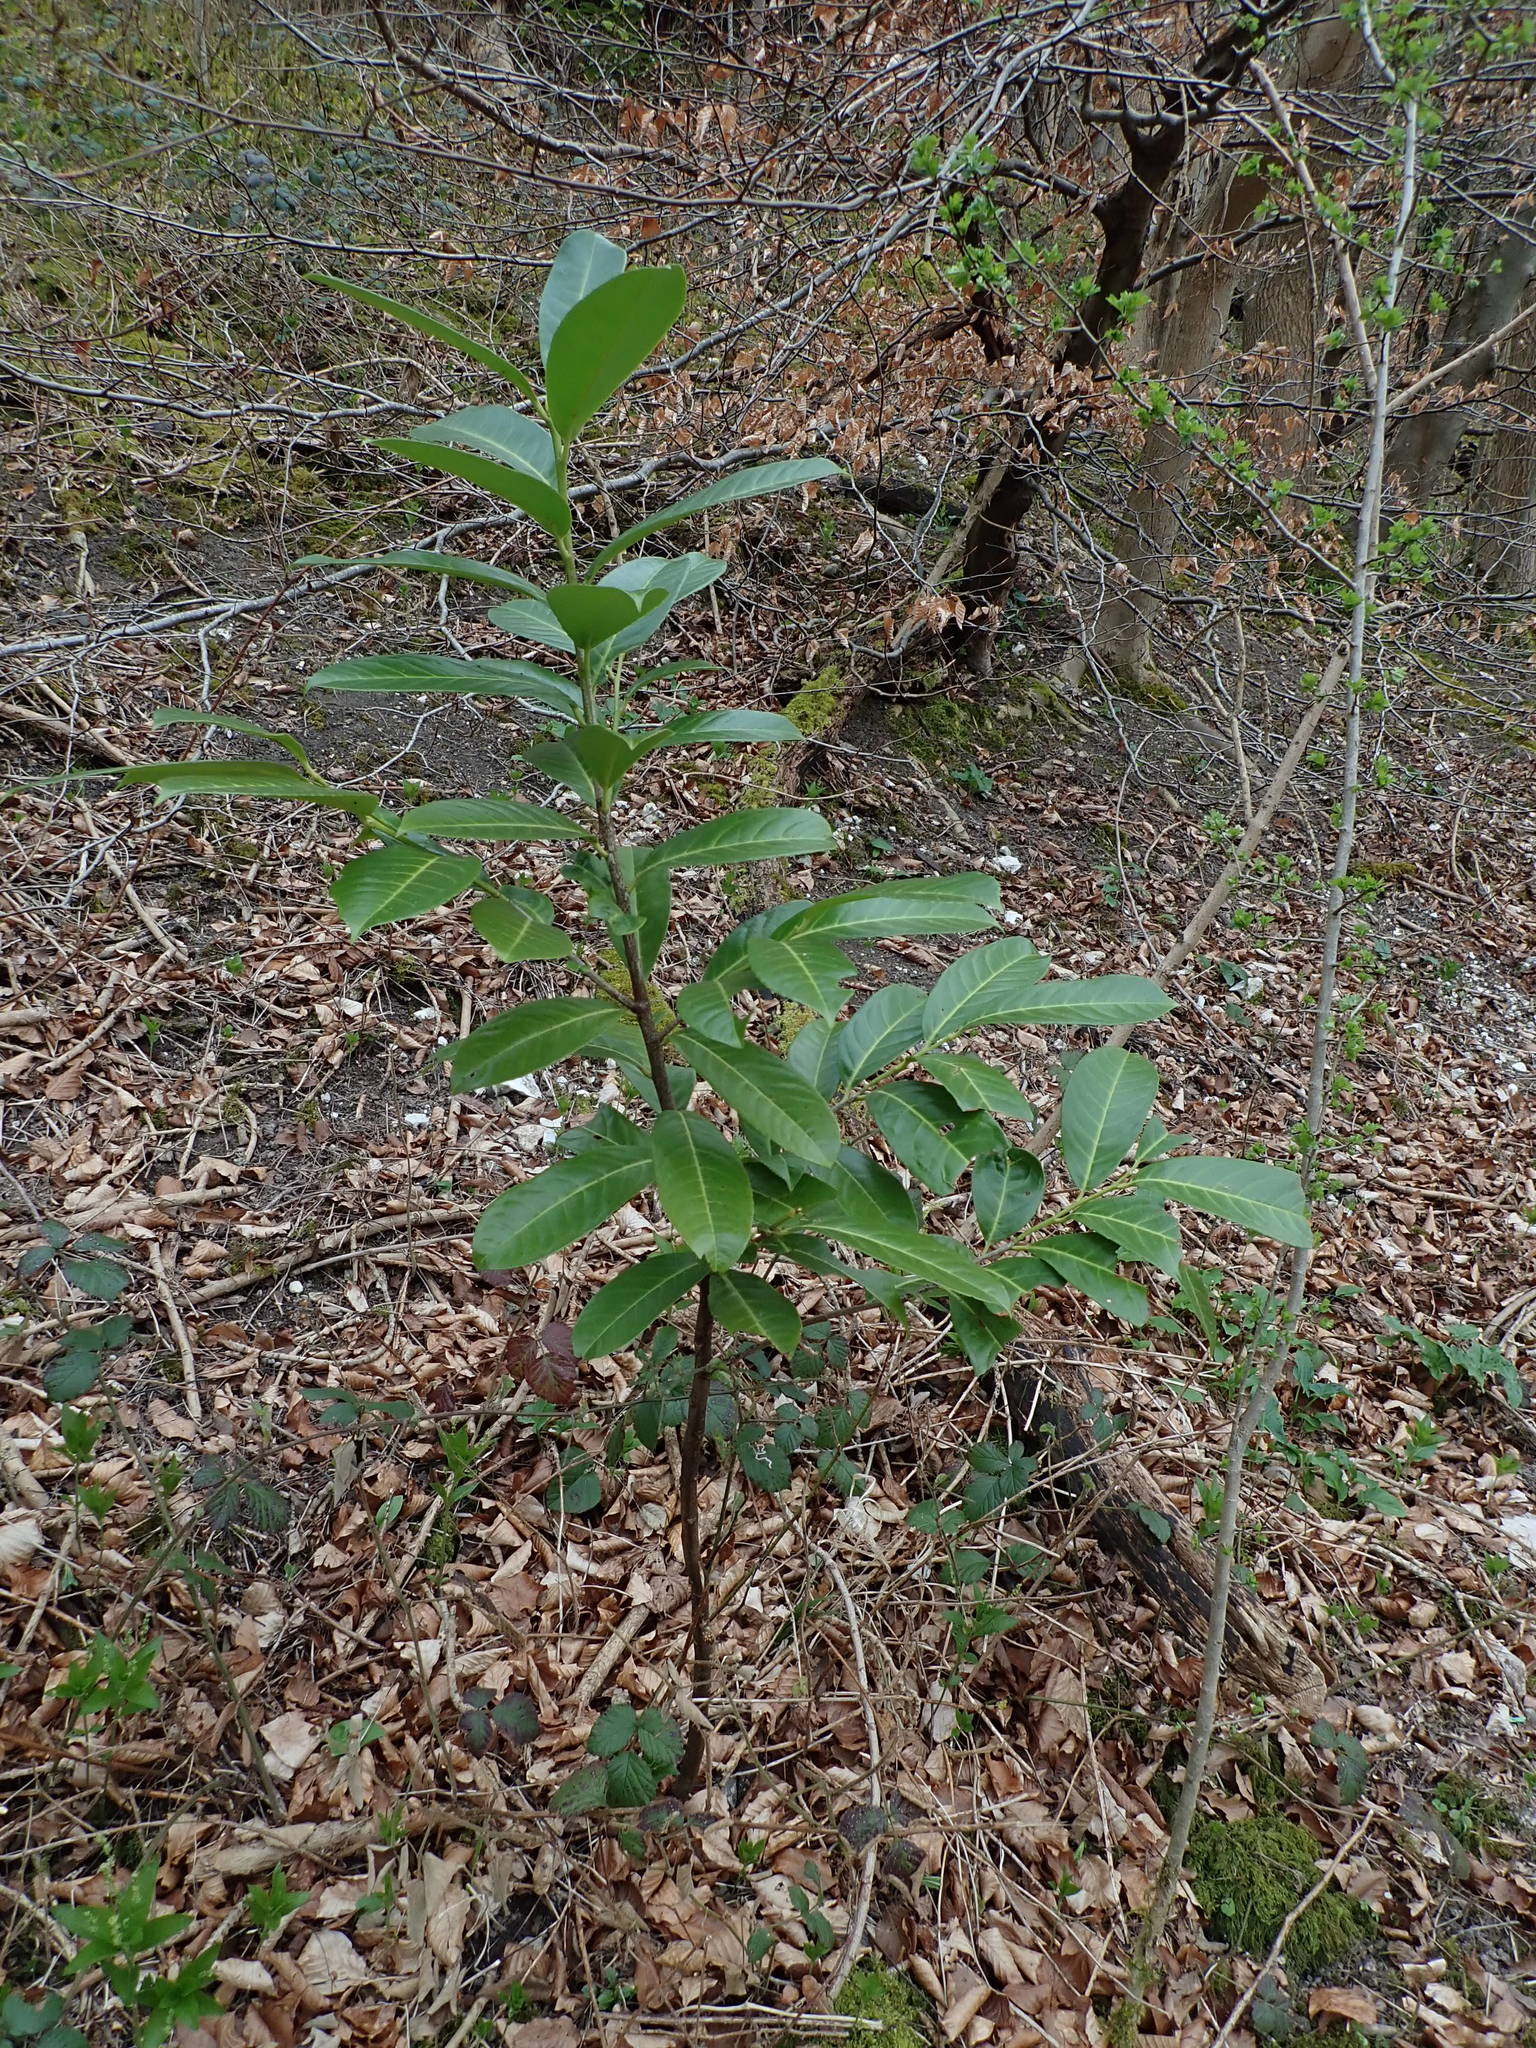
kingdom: Plantae
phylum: Tracheophyta
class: Magnoliopsida
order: Rosales
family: Rosaceae
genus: Prunus
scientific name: Prunus laurocerasus
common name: Cherry laurel
